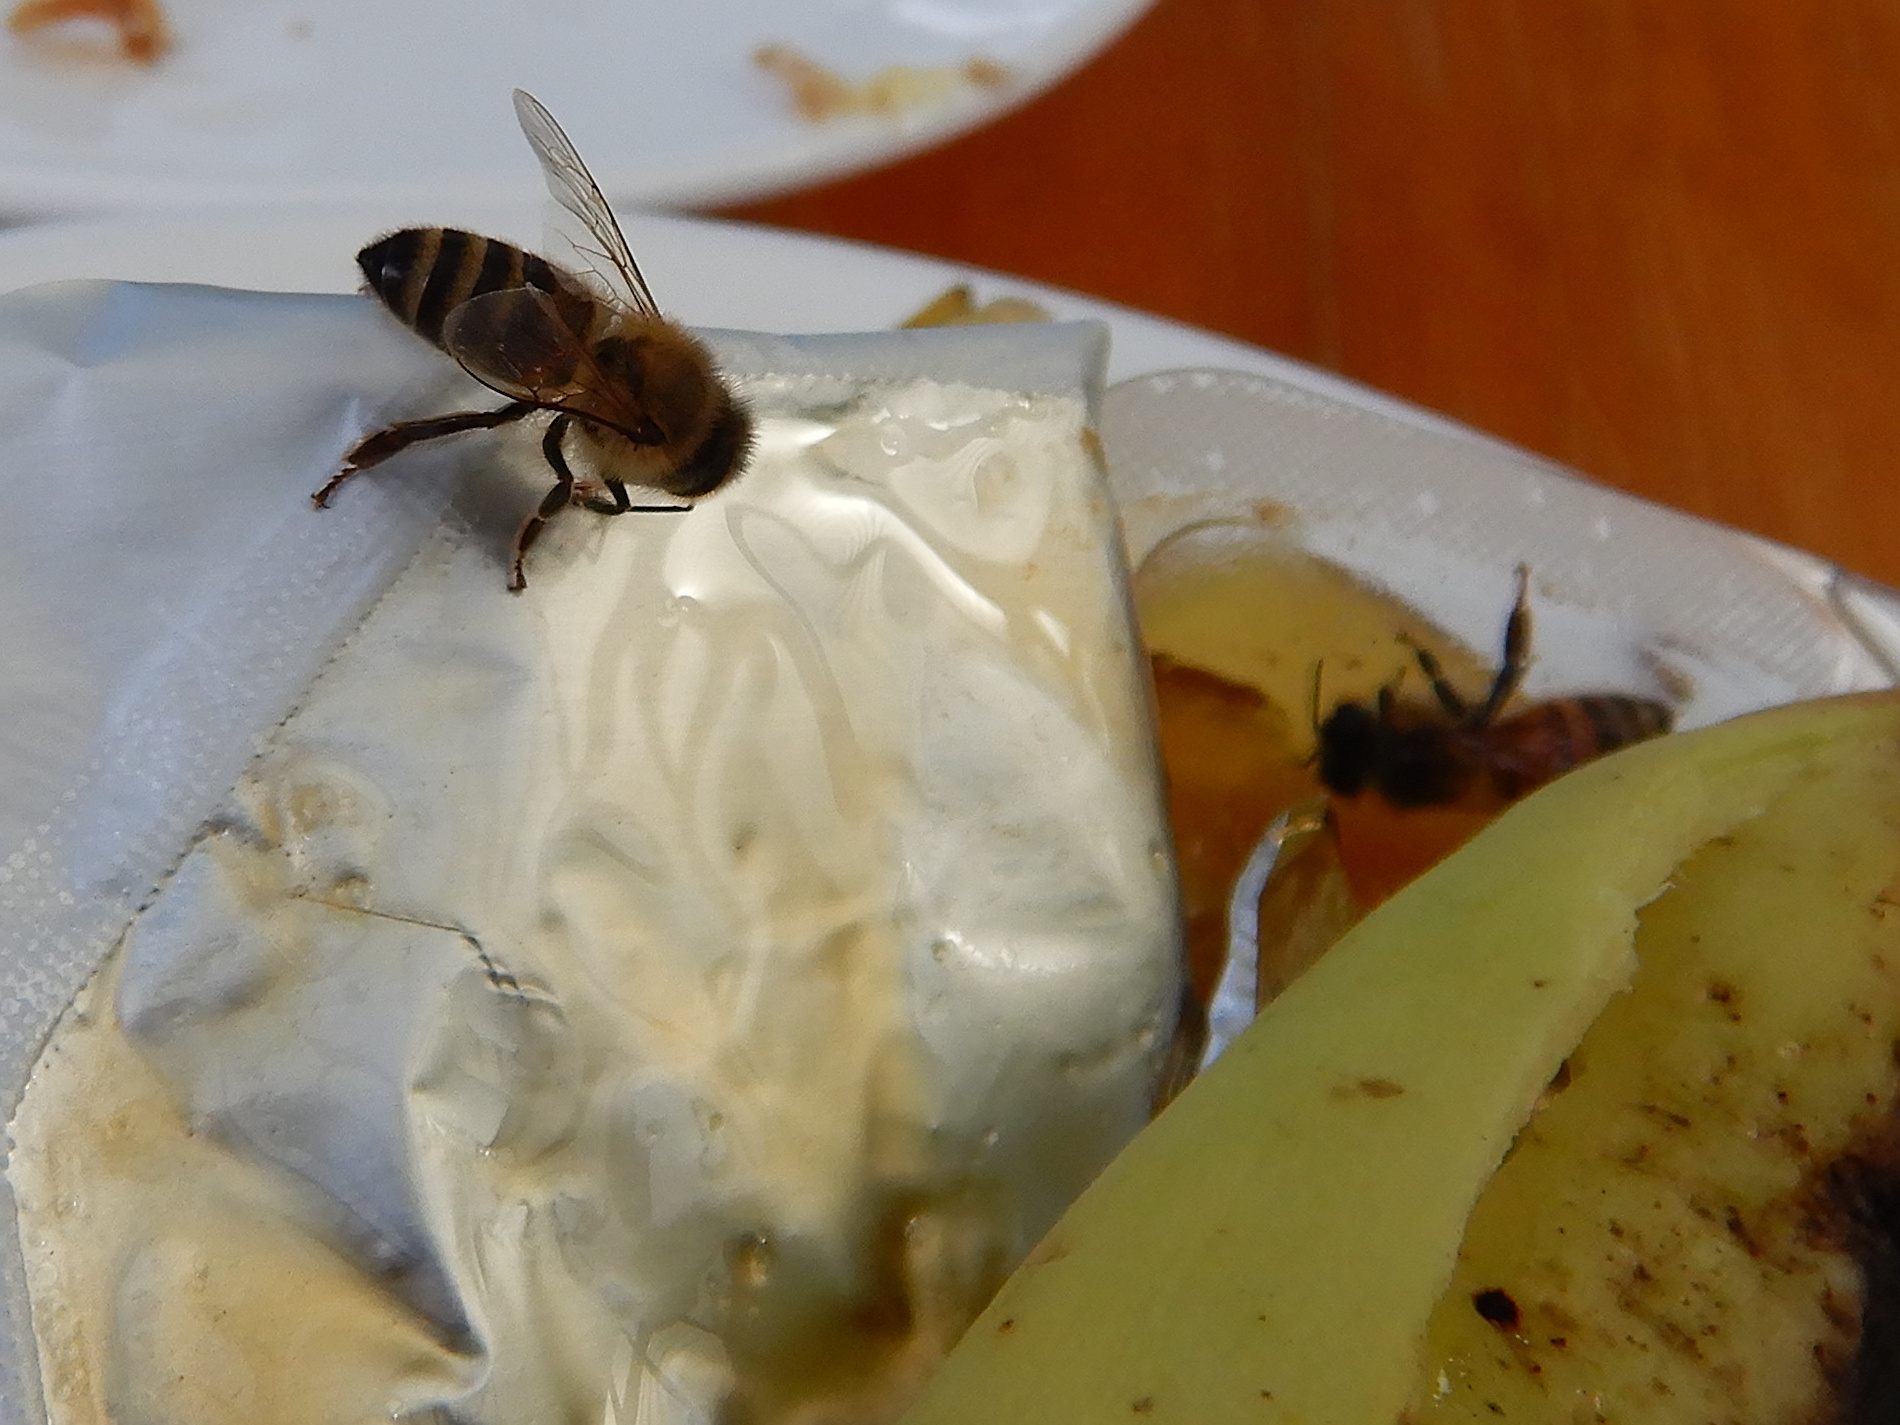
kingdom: Animalia
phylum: Arthropoda
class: Insecta
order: Hymenoptera
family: Apidae
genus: Apis
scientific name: Apis mellifera
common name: Honey bee
